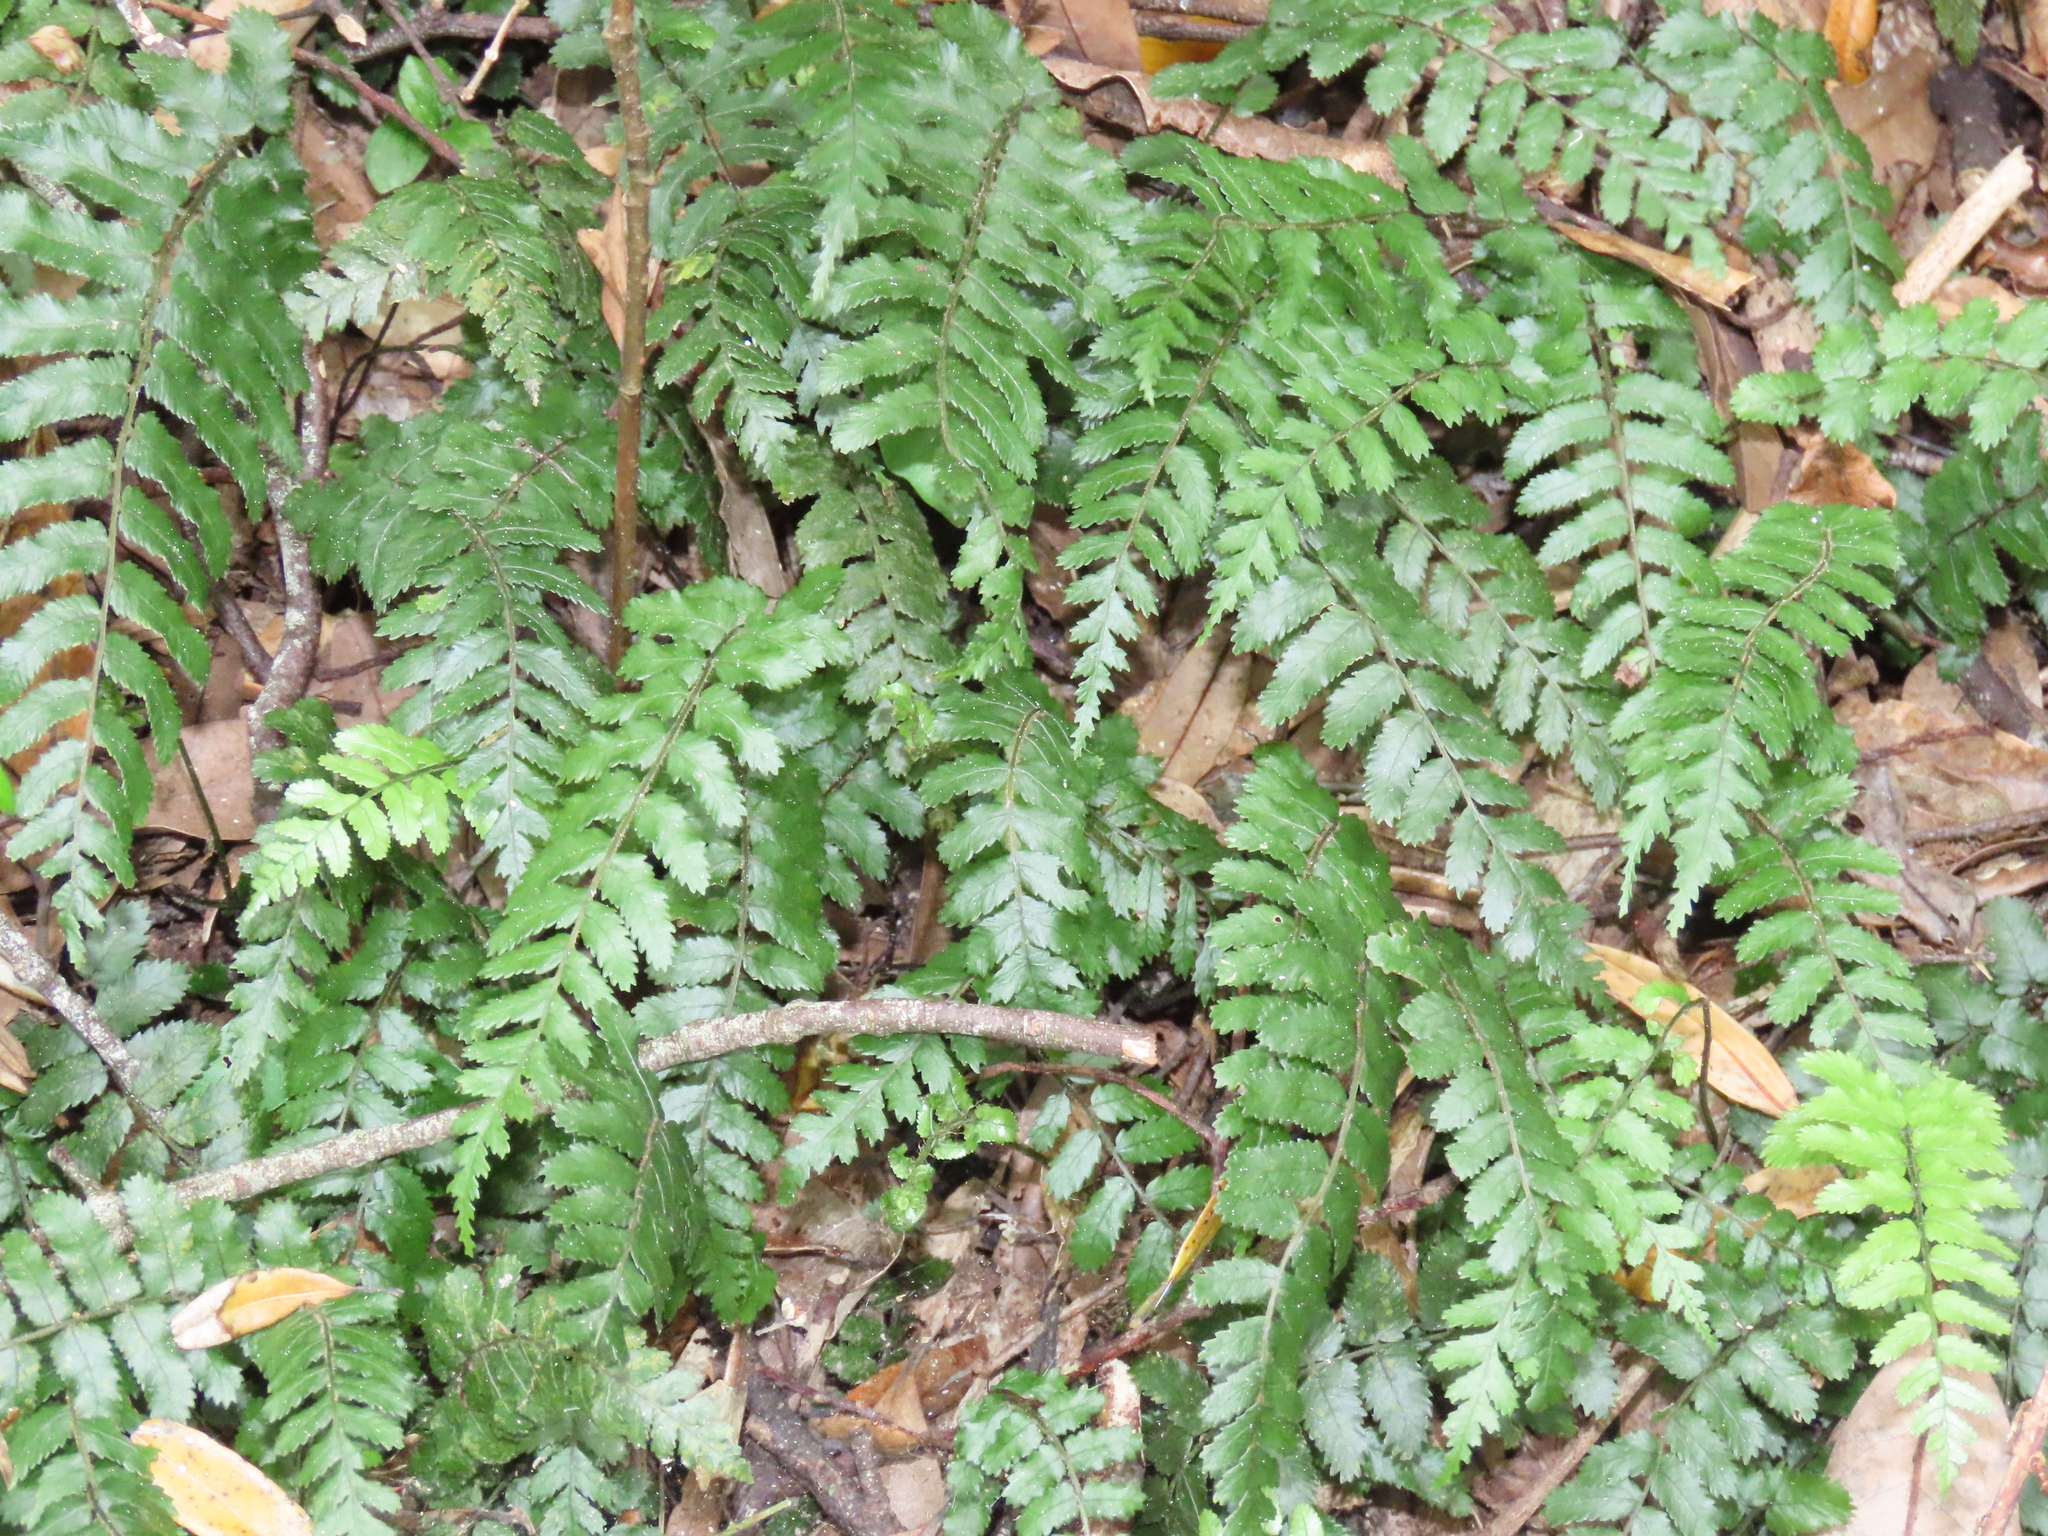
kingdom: Plantae
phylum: Tracheophyta
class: Polypodiopsida
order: Polypodiales
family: Blechnaceae
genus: Icarus
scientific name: Icarus filiformis
